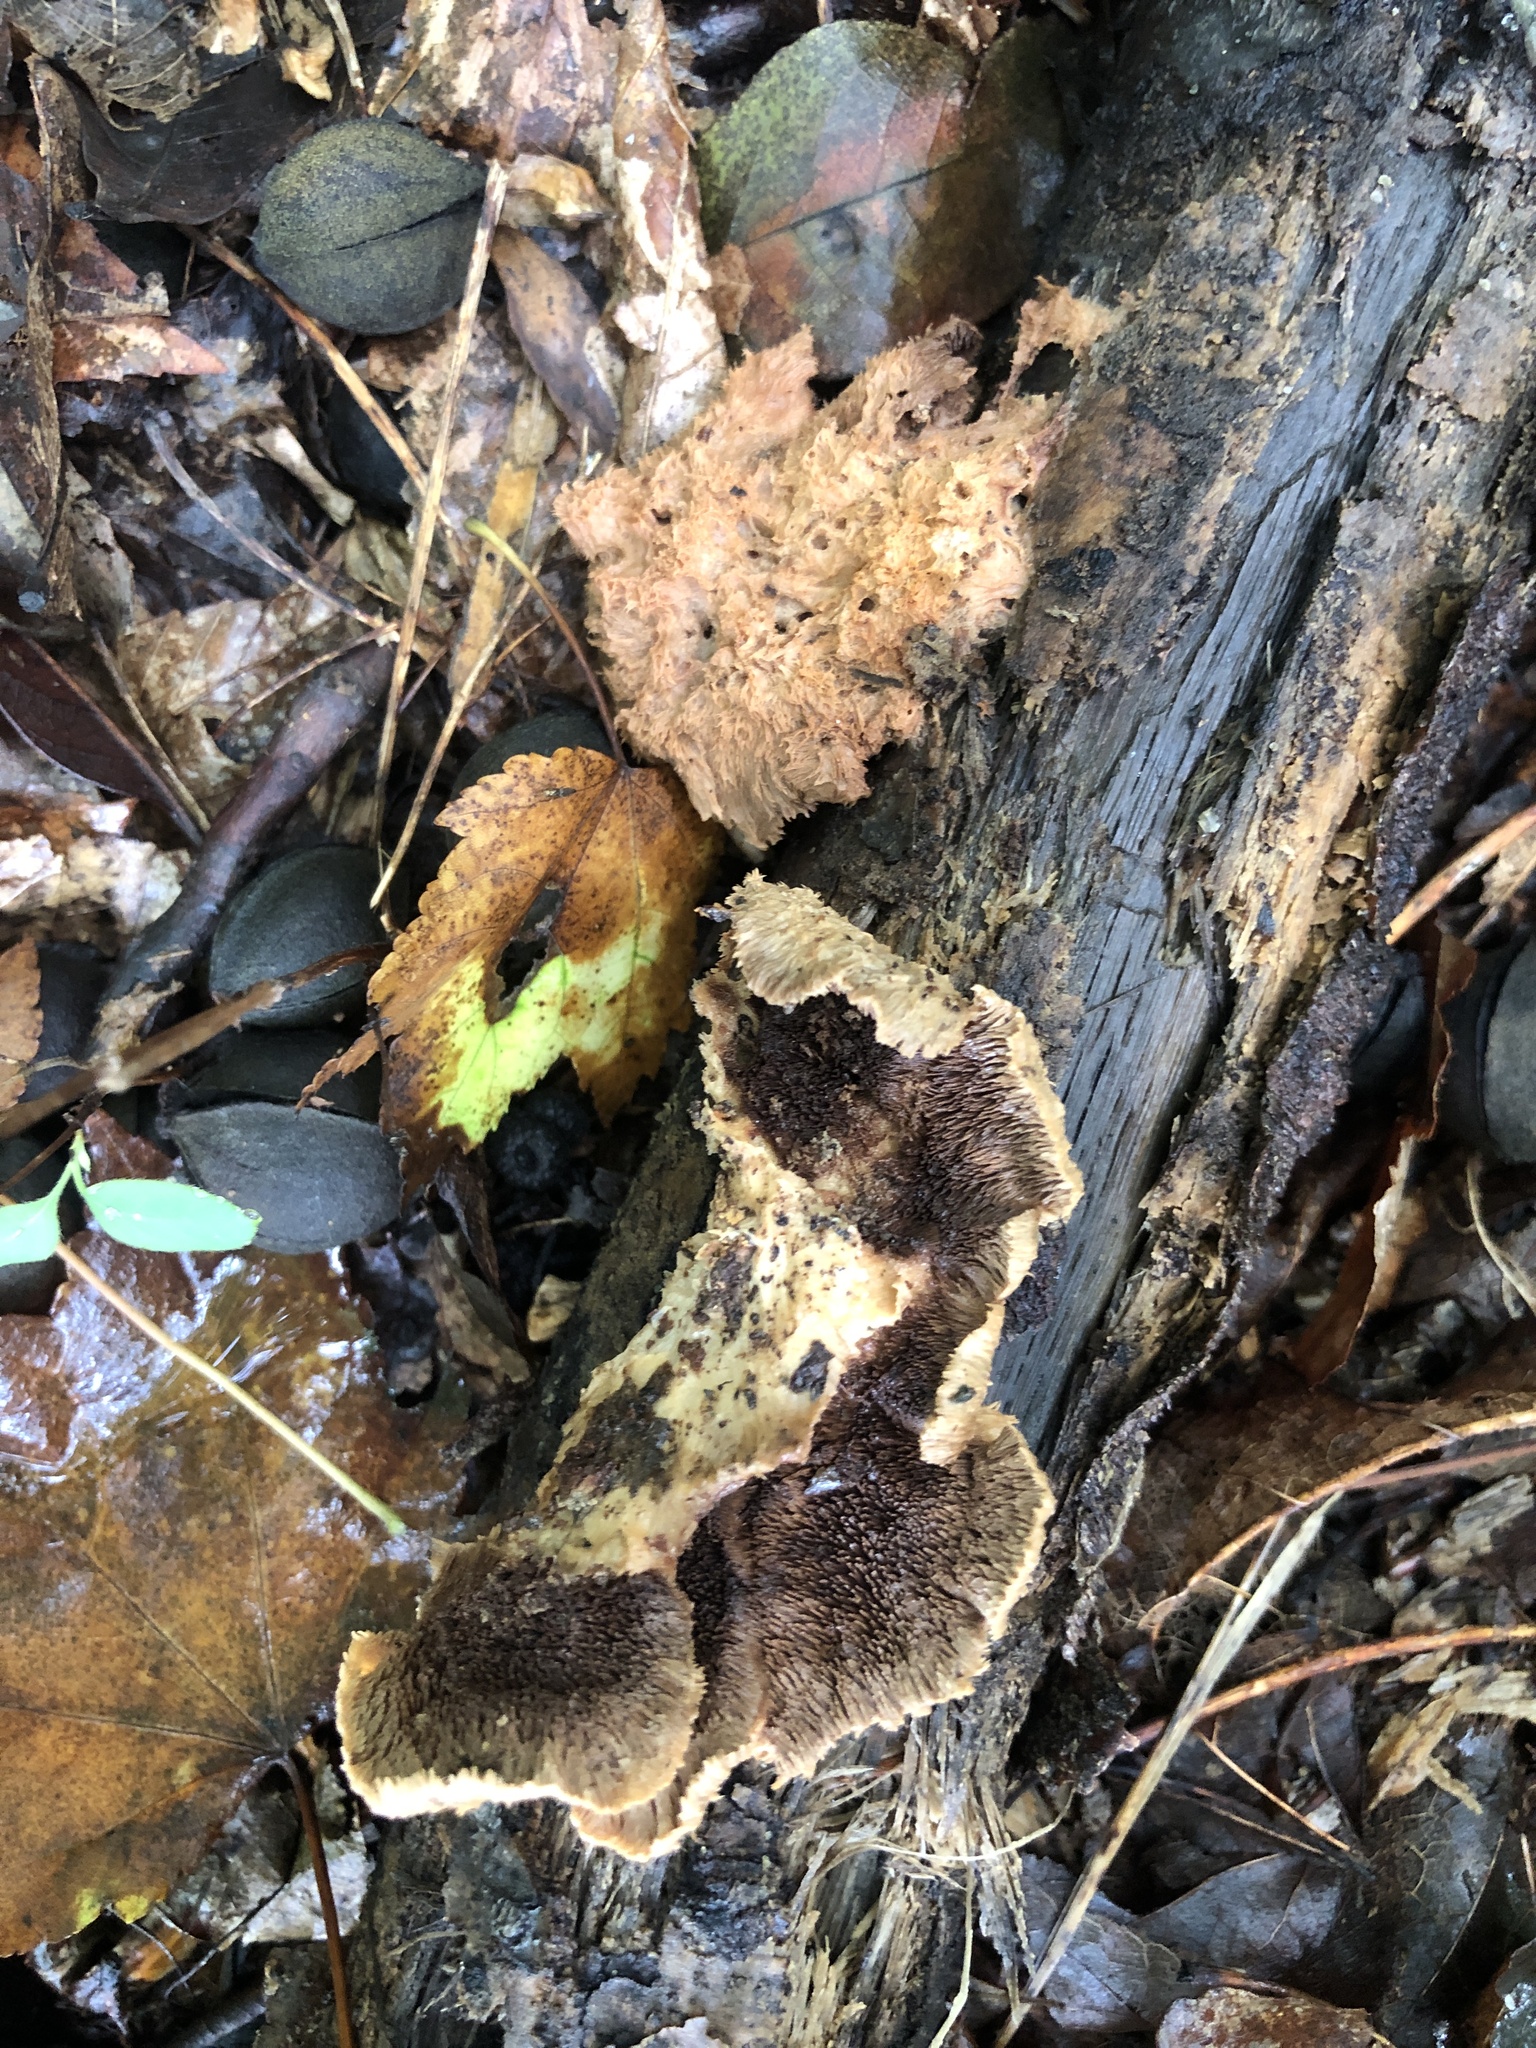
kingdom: Fungi
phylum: Basidiomycota
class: Agaricomycetes
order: Polyporales
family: Meruliaceae
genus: Donkia
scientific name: Donkia pulcherrima
